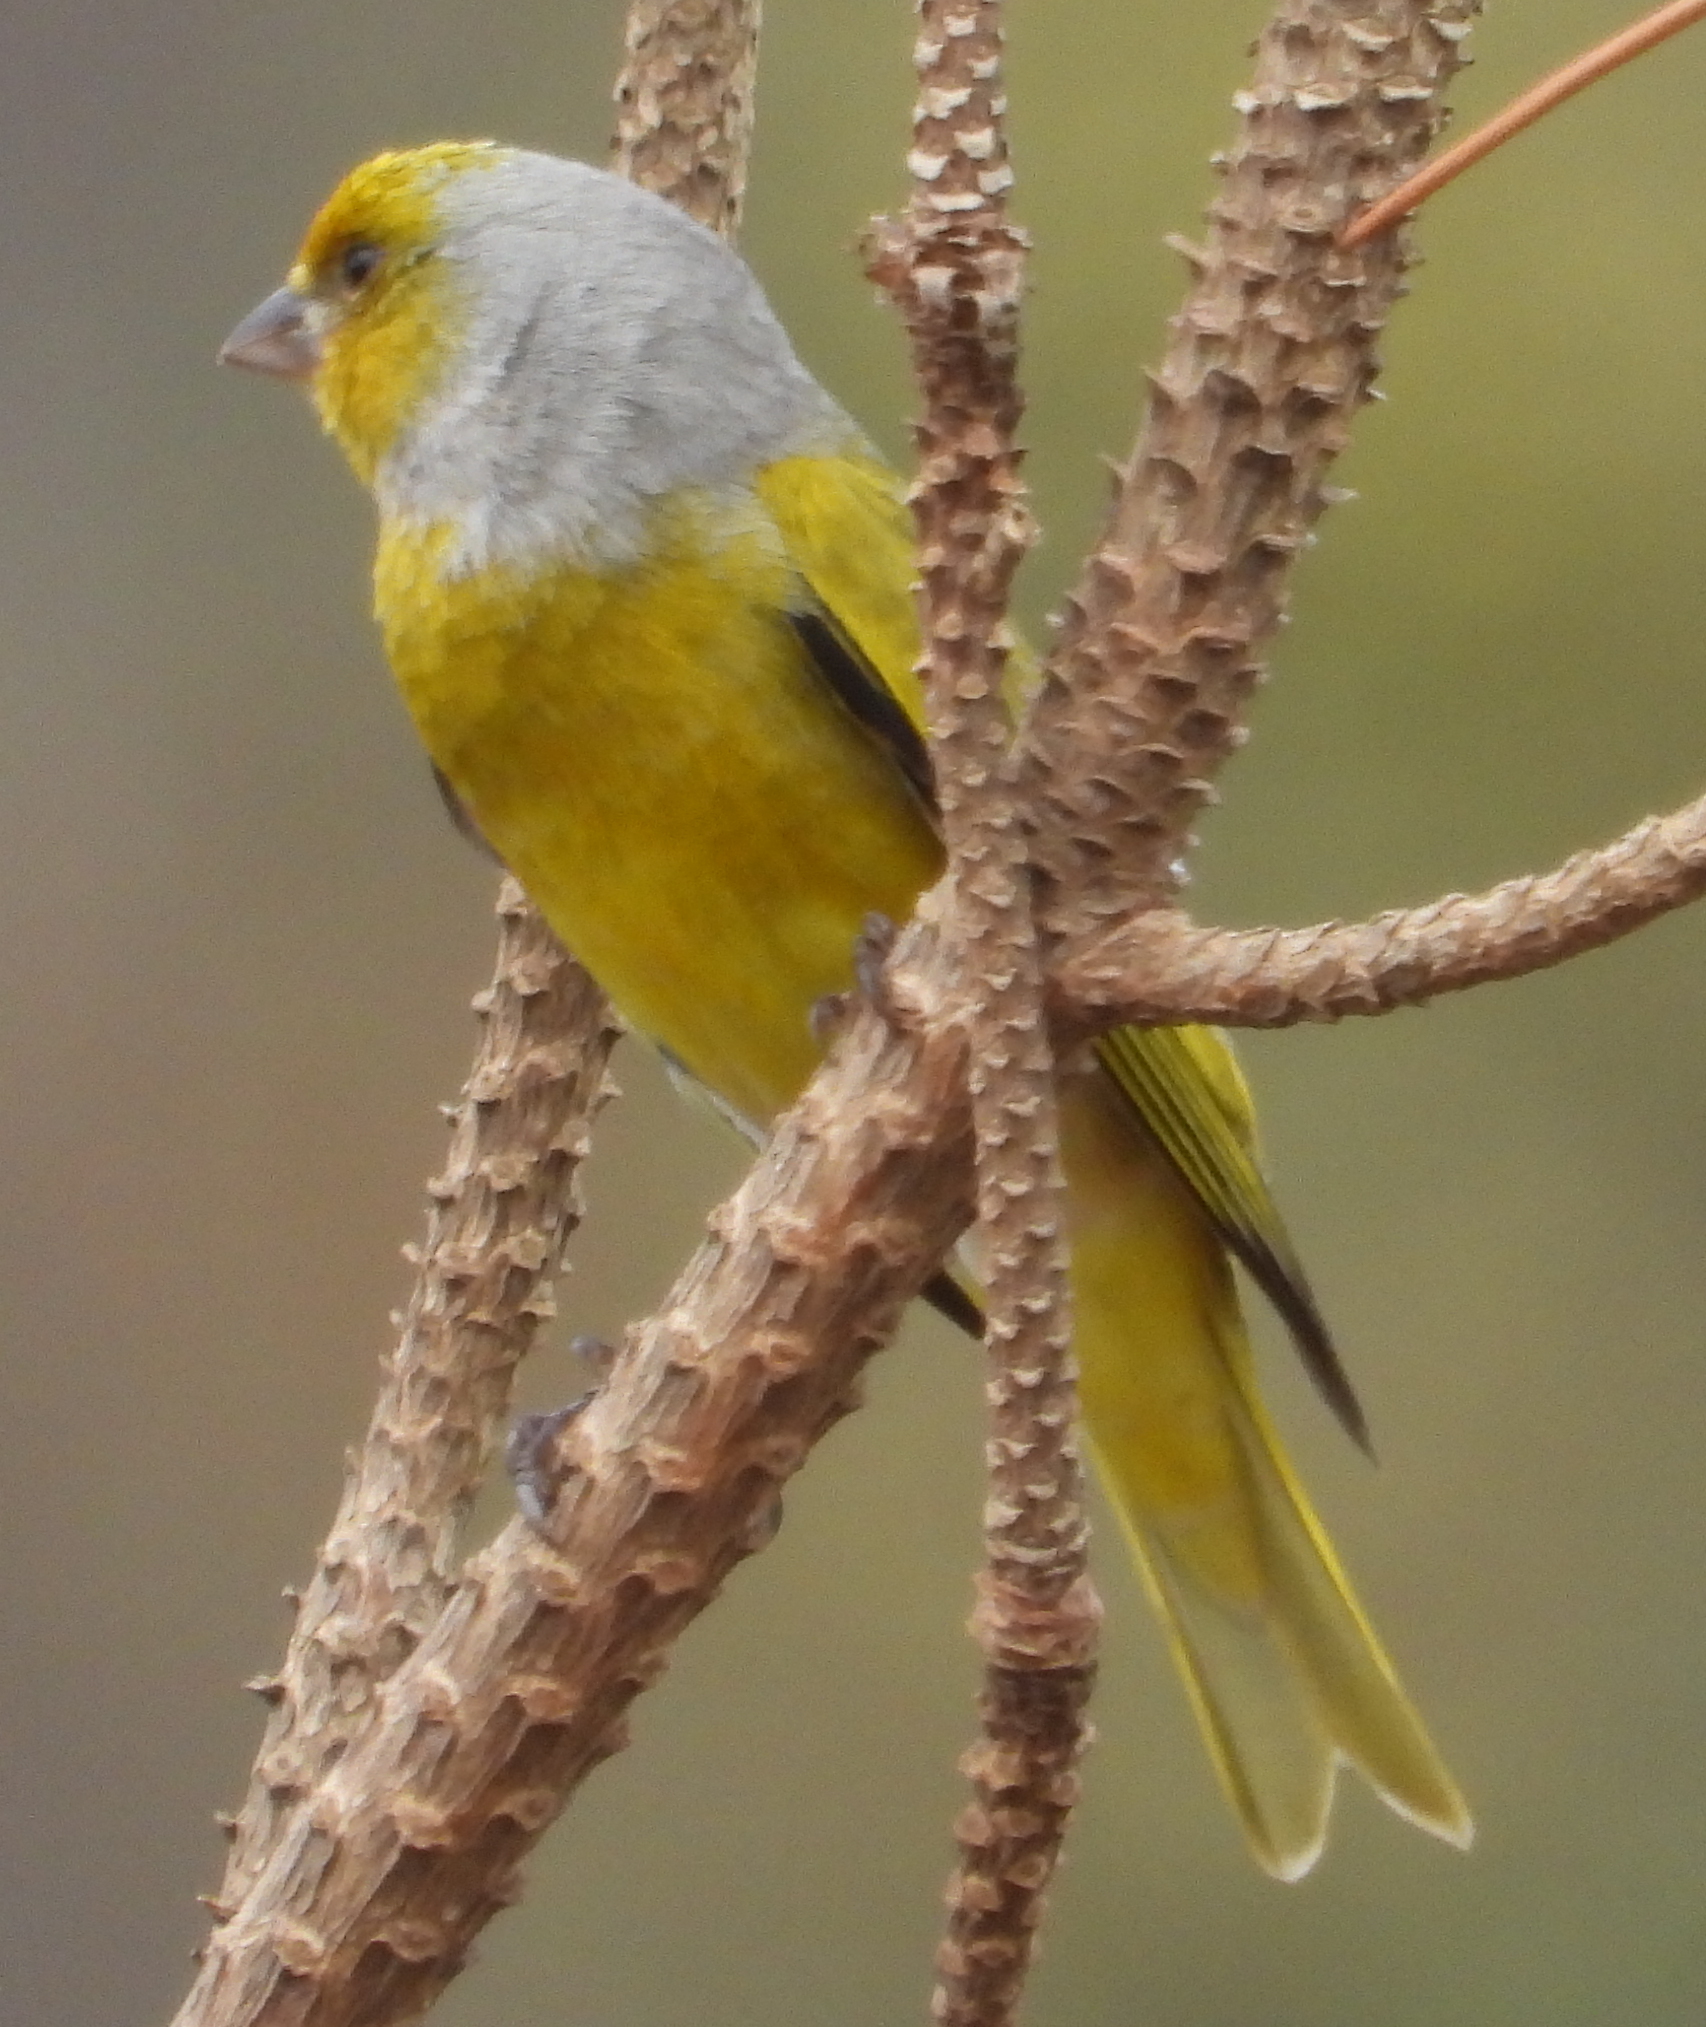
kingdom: Animalia
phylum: Chordata
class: Aves
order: Passeriformes
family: Fringillidae
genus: Serinus
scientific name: Serinus canicollis
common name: Cape canary
